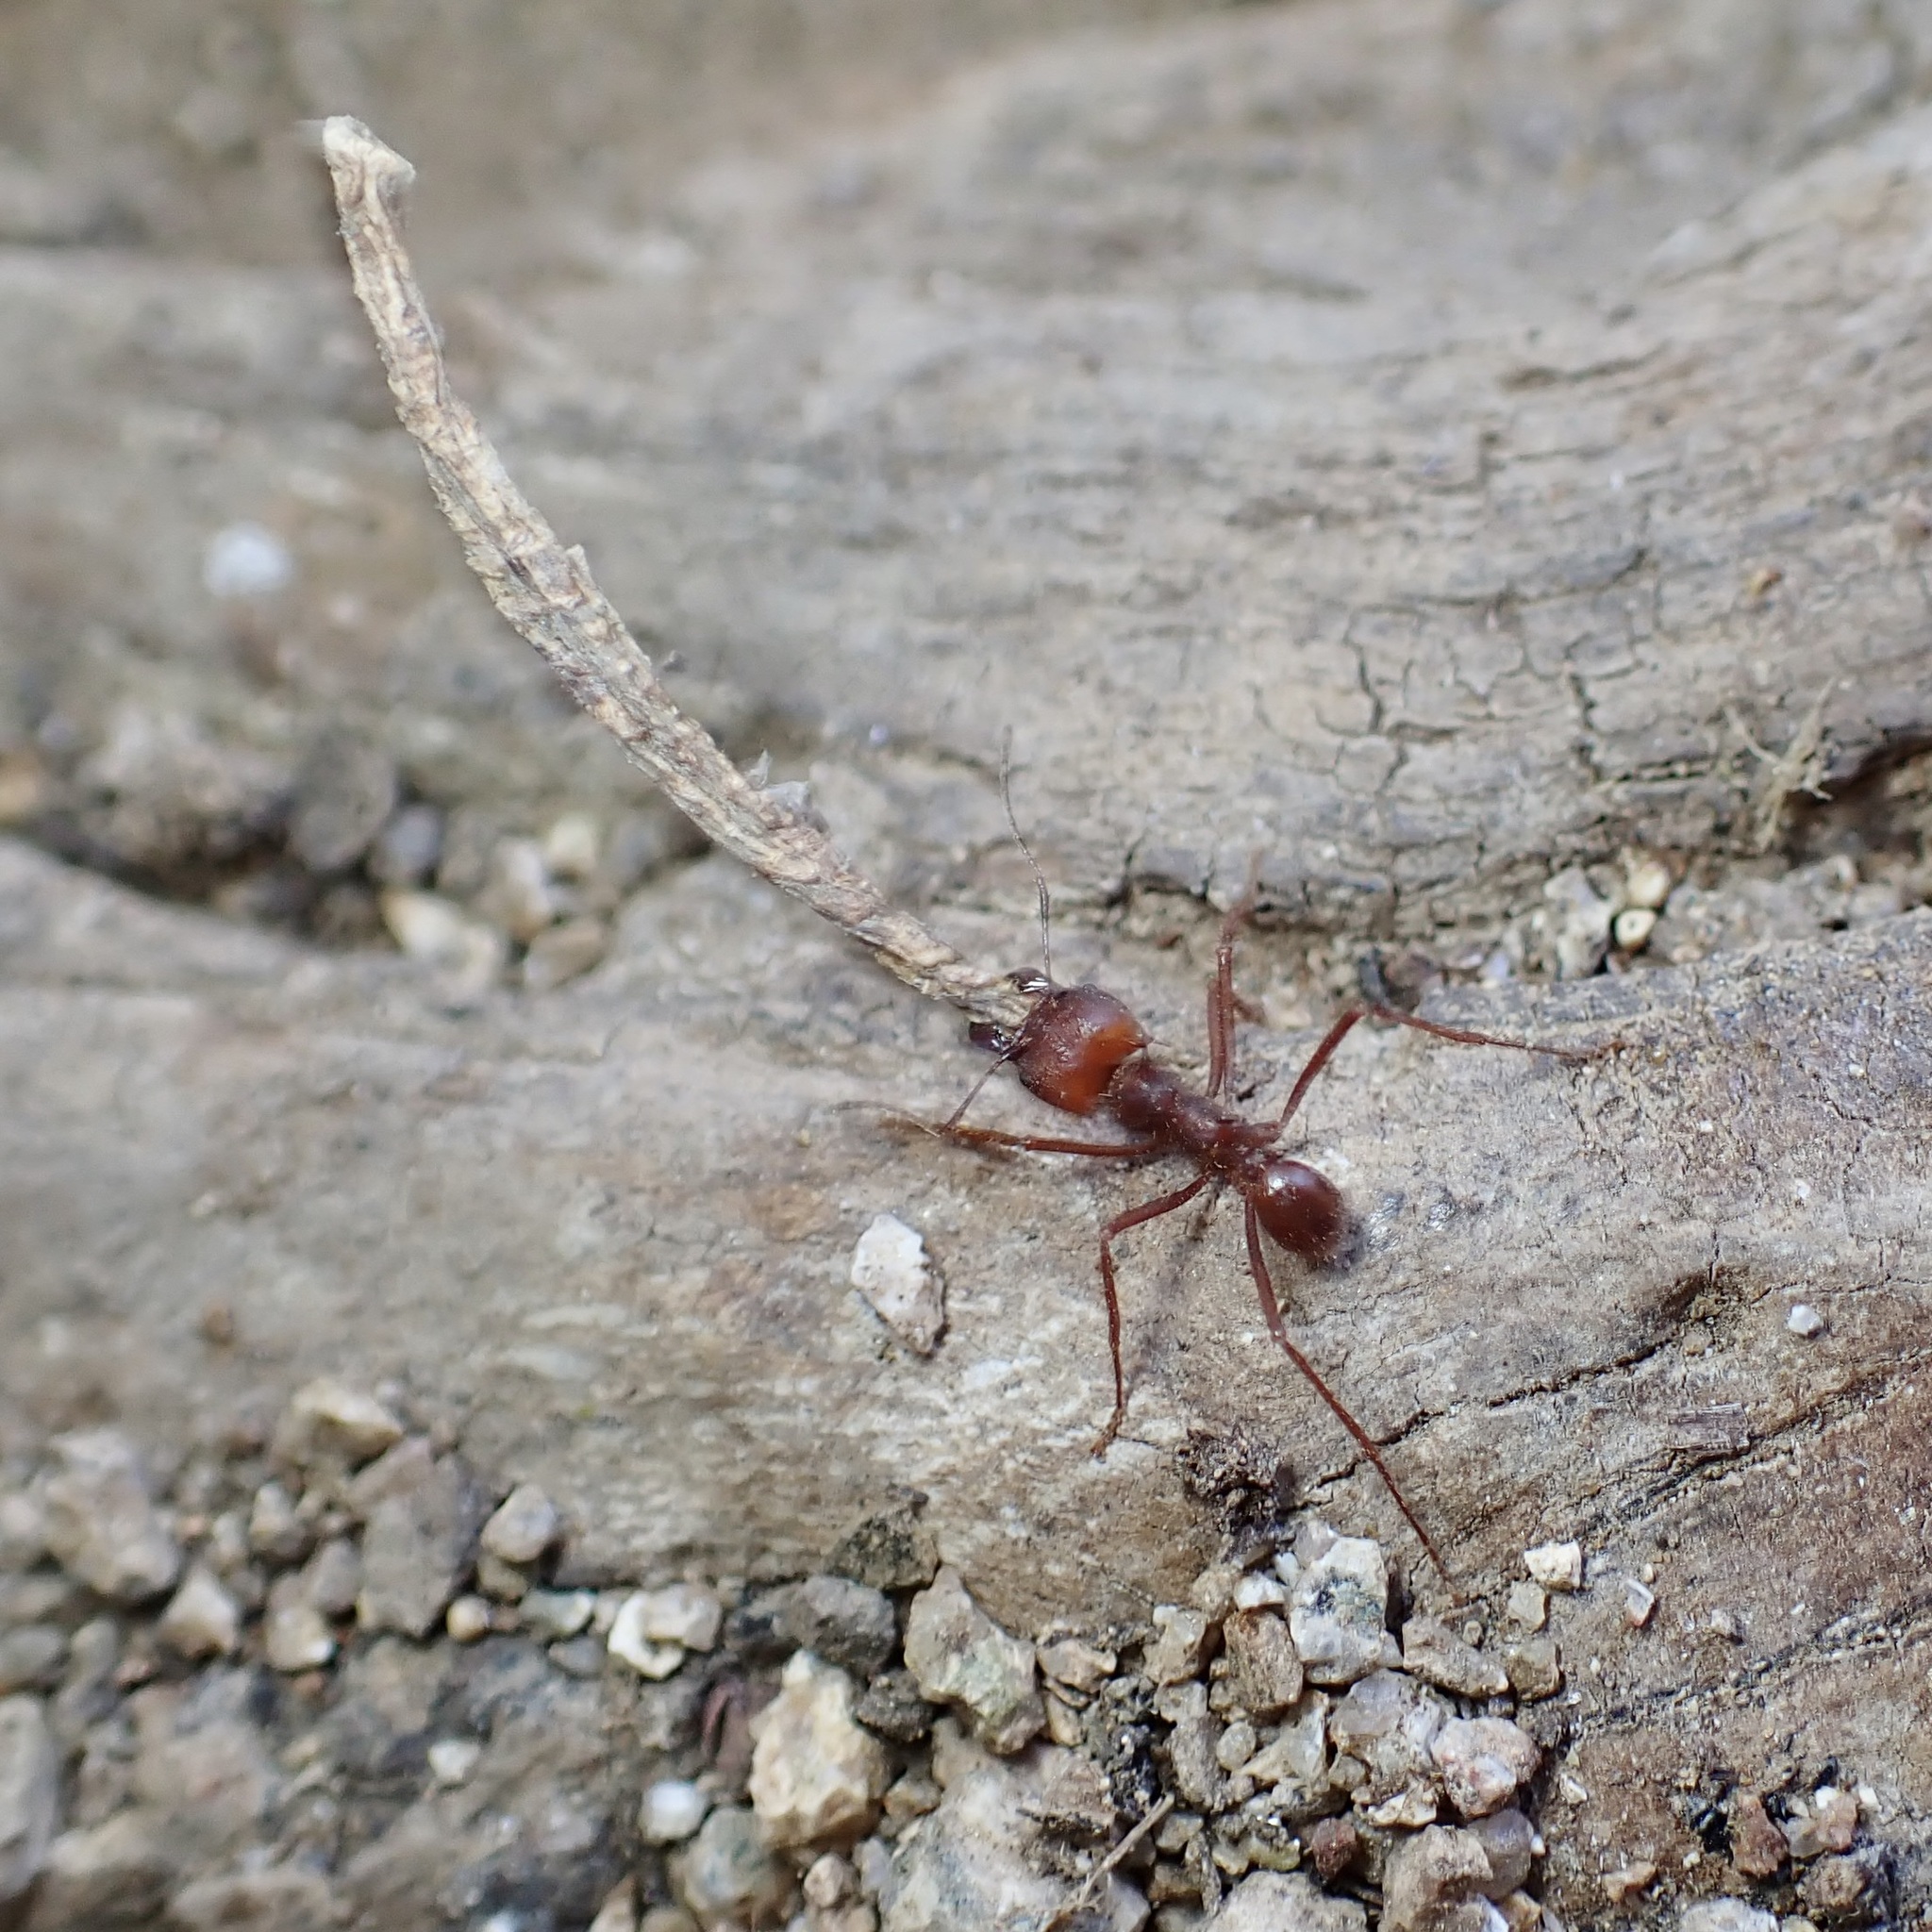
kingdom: Animalia
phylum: Arthropoda
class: Insecta
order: Hymenoptera
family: Formicidae
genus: Atta
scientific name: Atta mexicana
